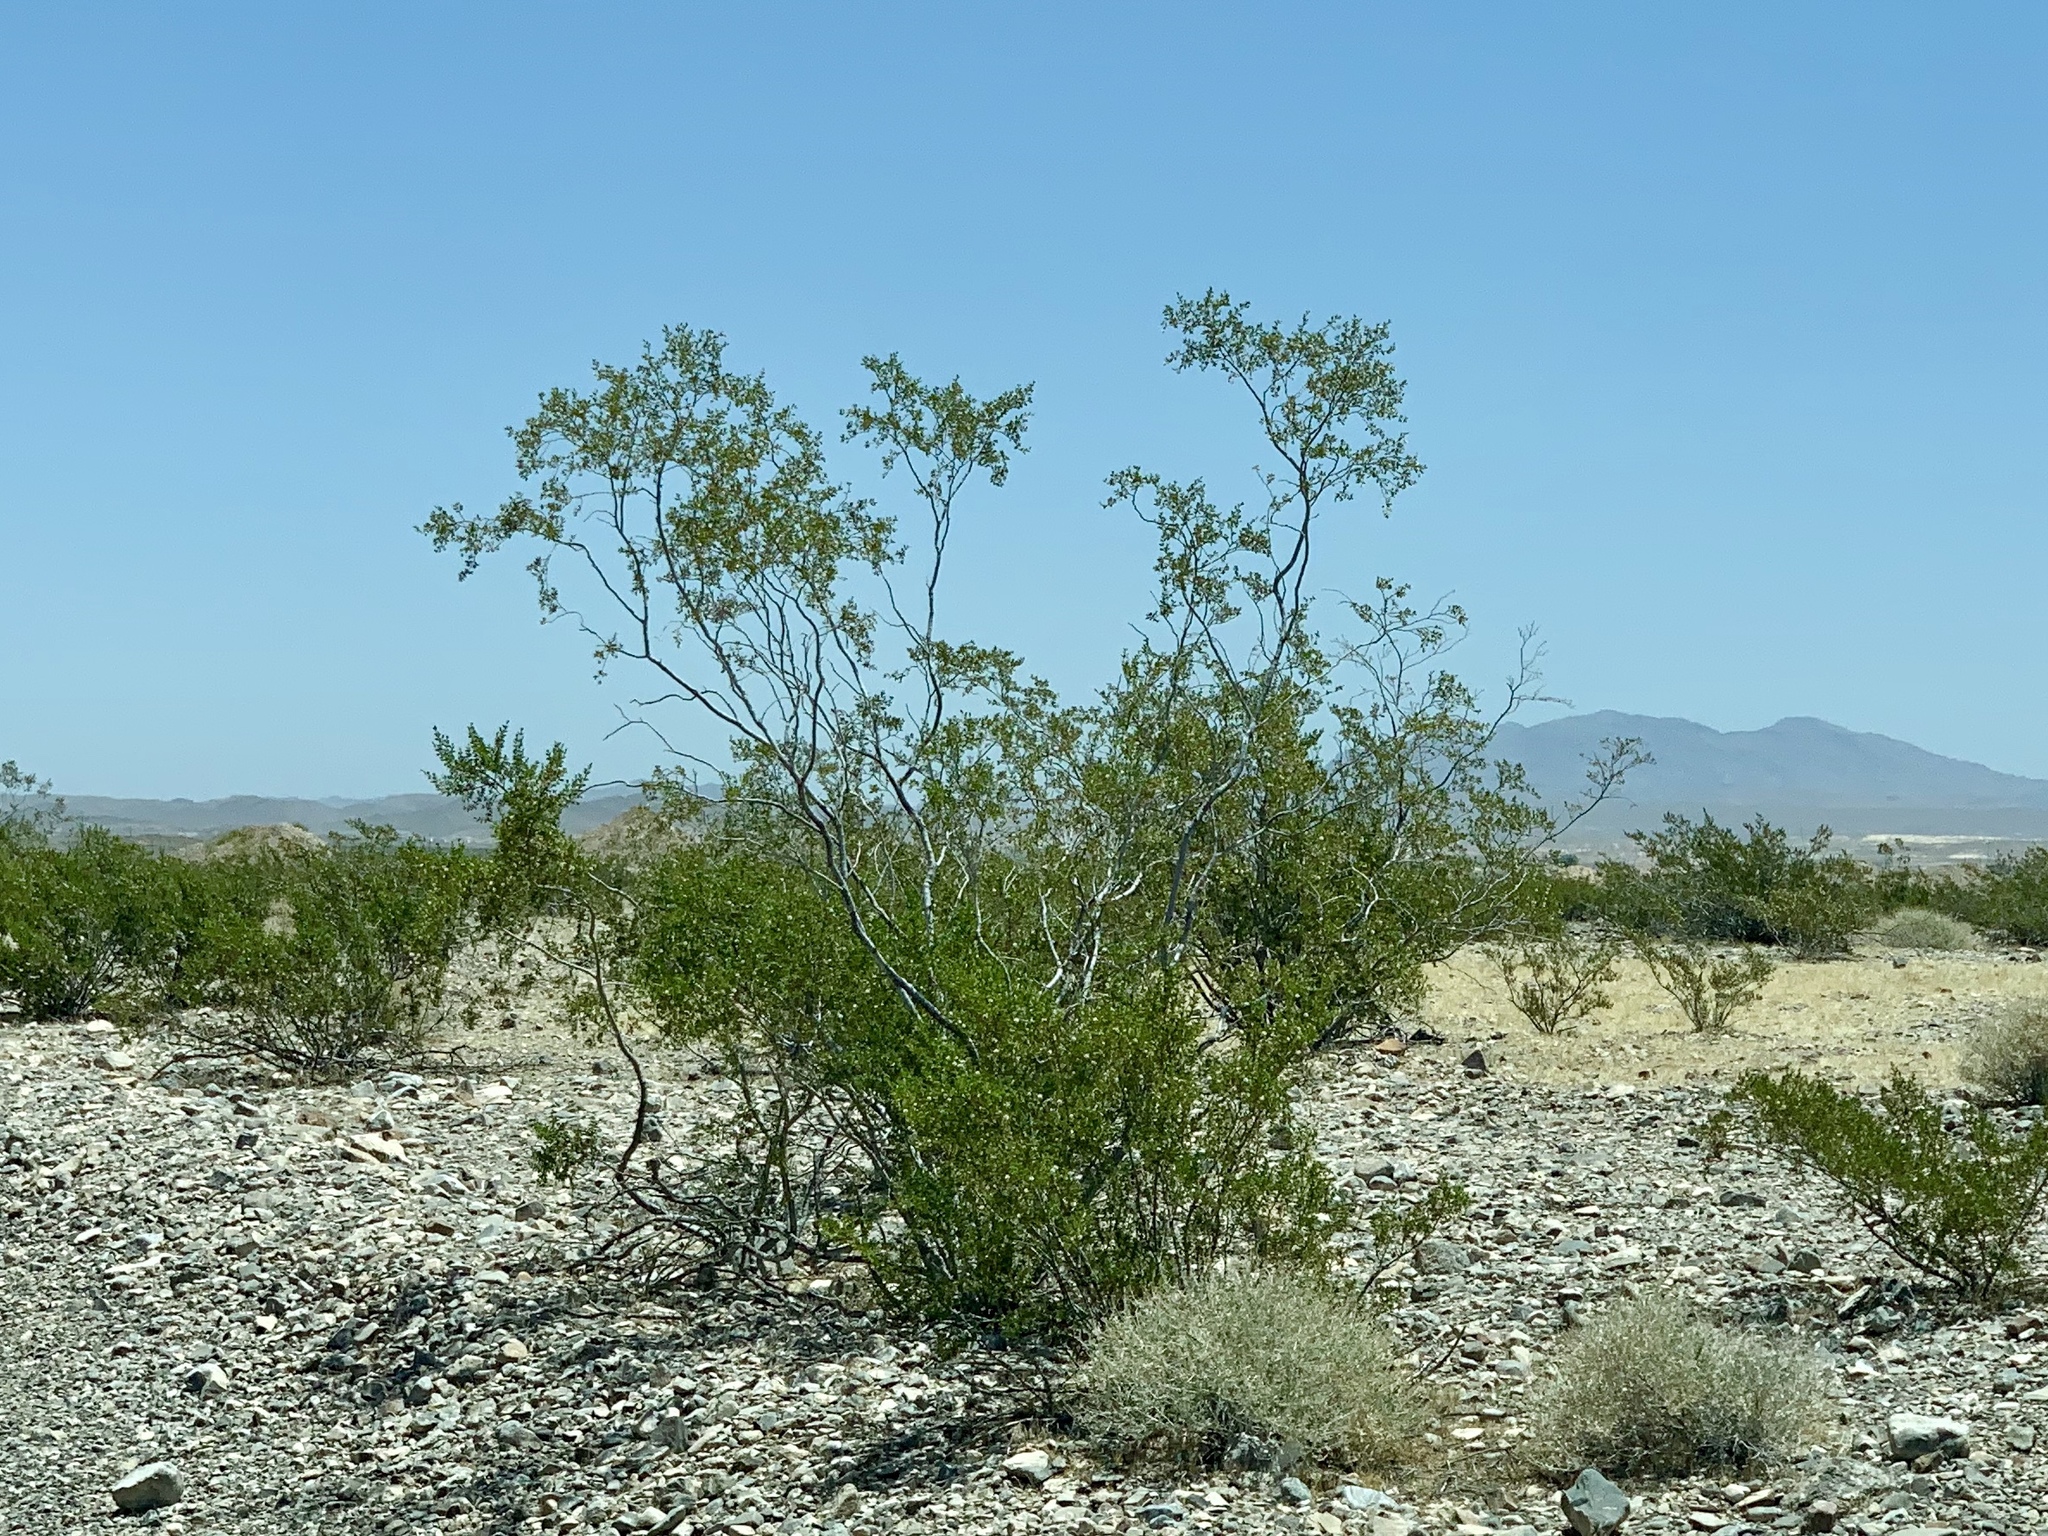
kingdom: Plantae
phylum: Tracheophyta
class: Magnoliopsida
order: Zygophyllales
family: Zygophyllaceae
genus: Larrea
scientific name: Larrea tridentata
